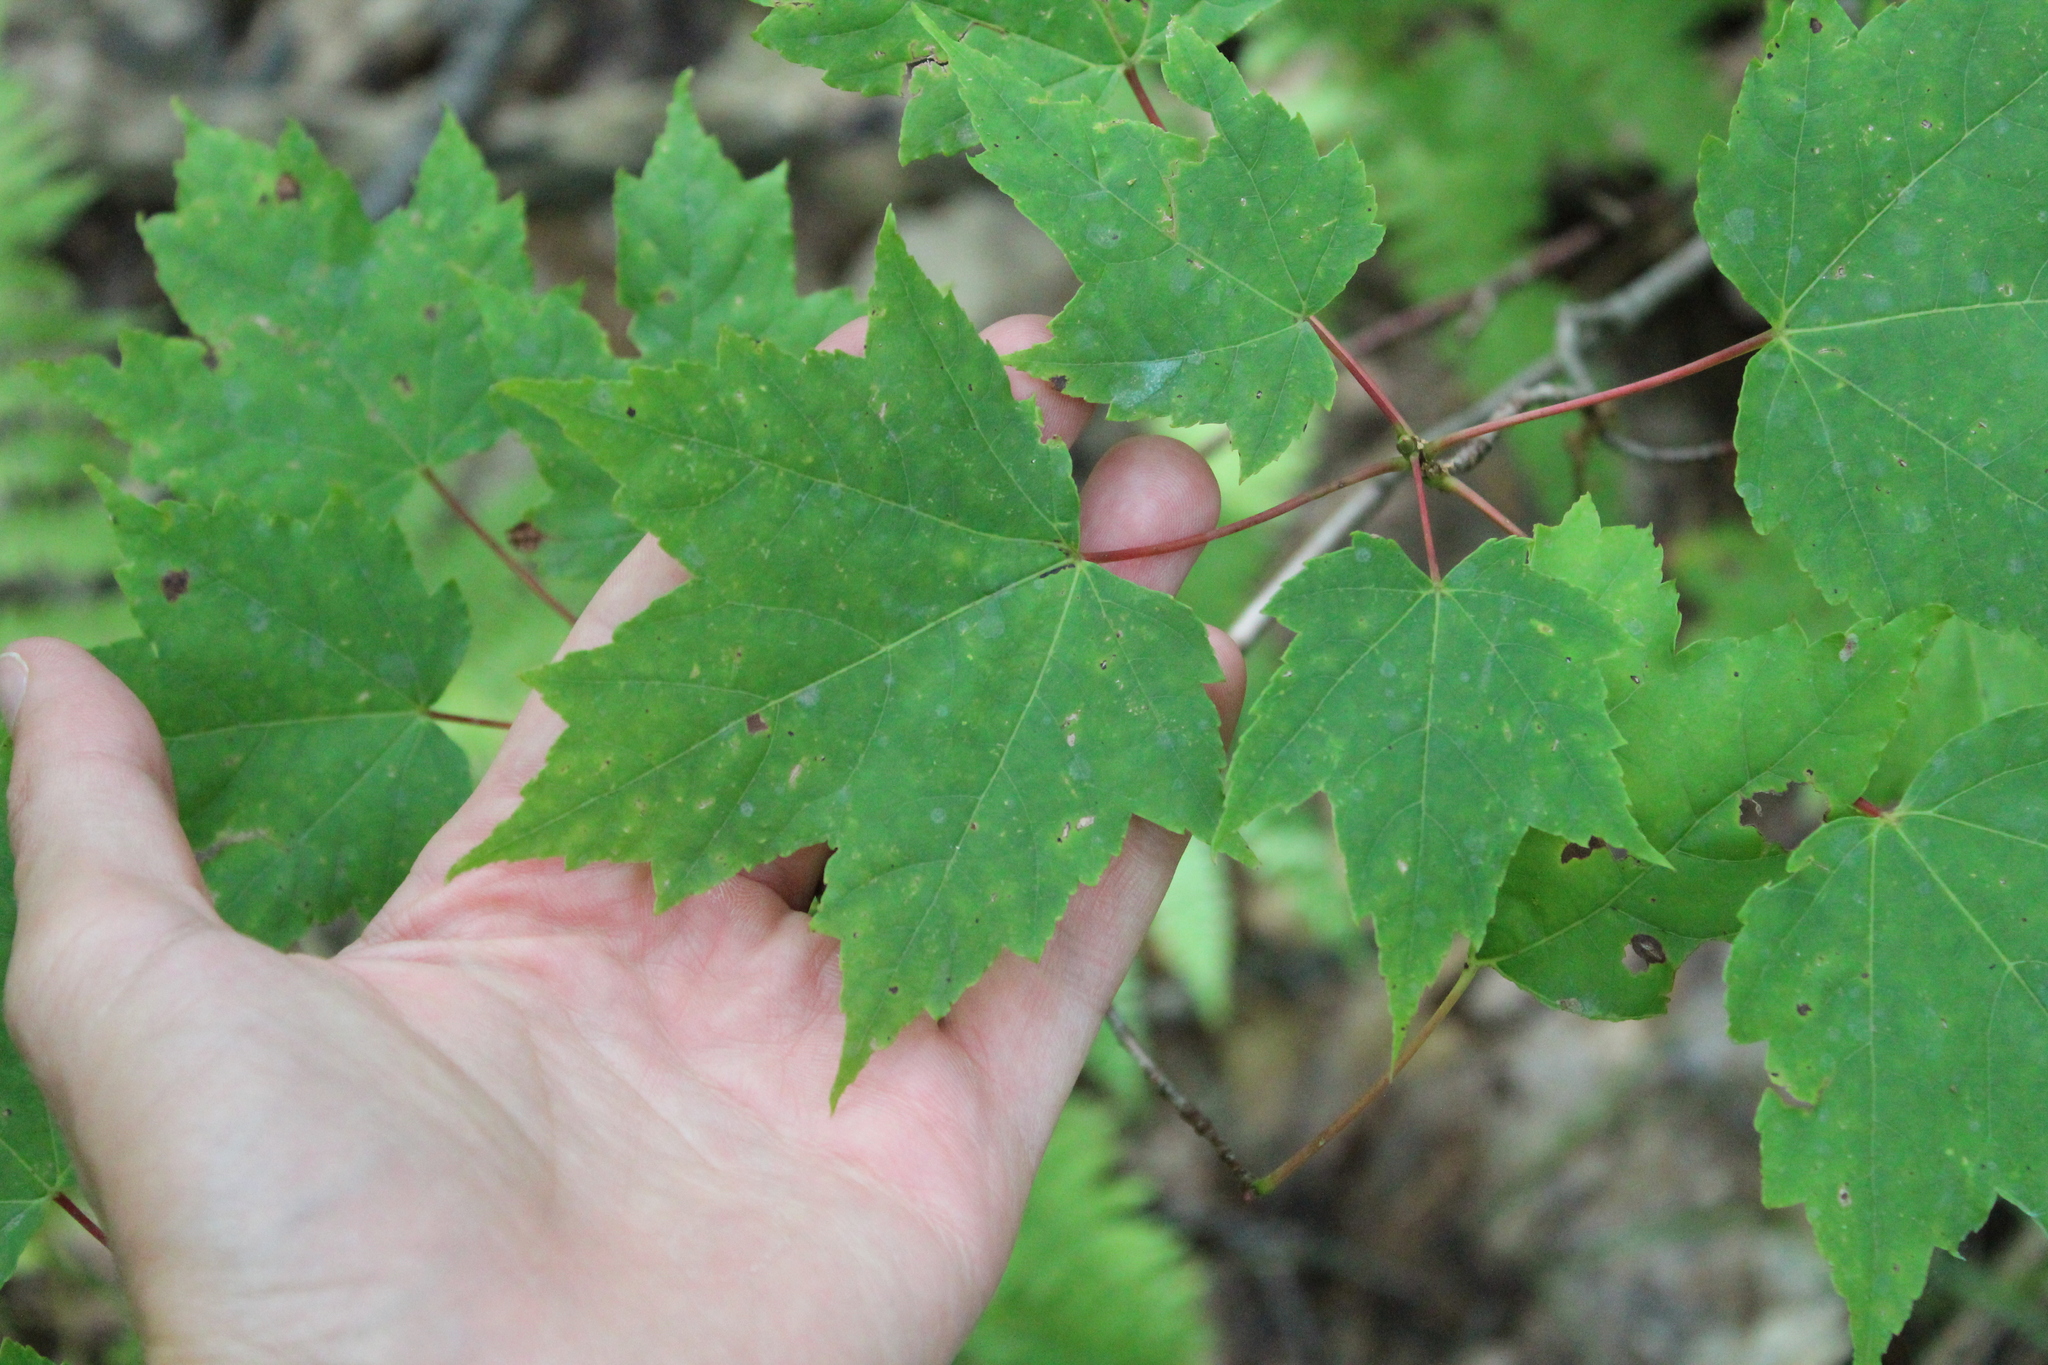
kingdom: Plantae
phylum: Tracheophyta
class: Magnoliopsida
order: Sapindales
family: Sapindaceae
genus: Acer
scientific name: Acer rubrum
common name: Red maple
